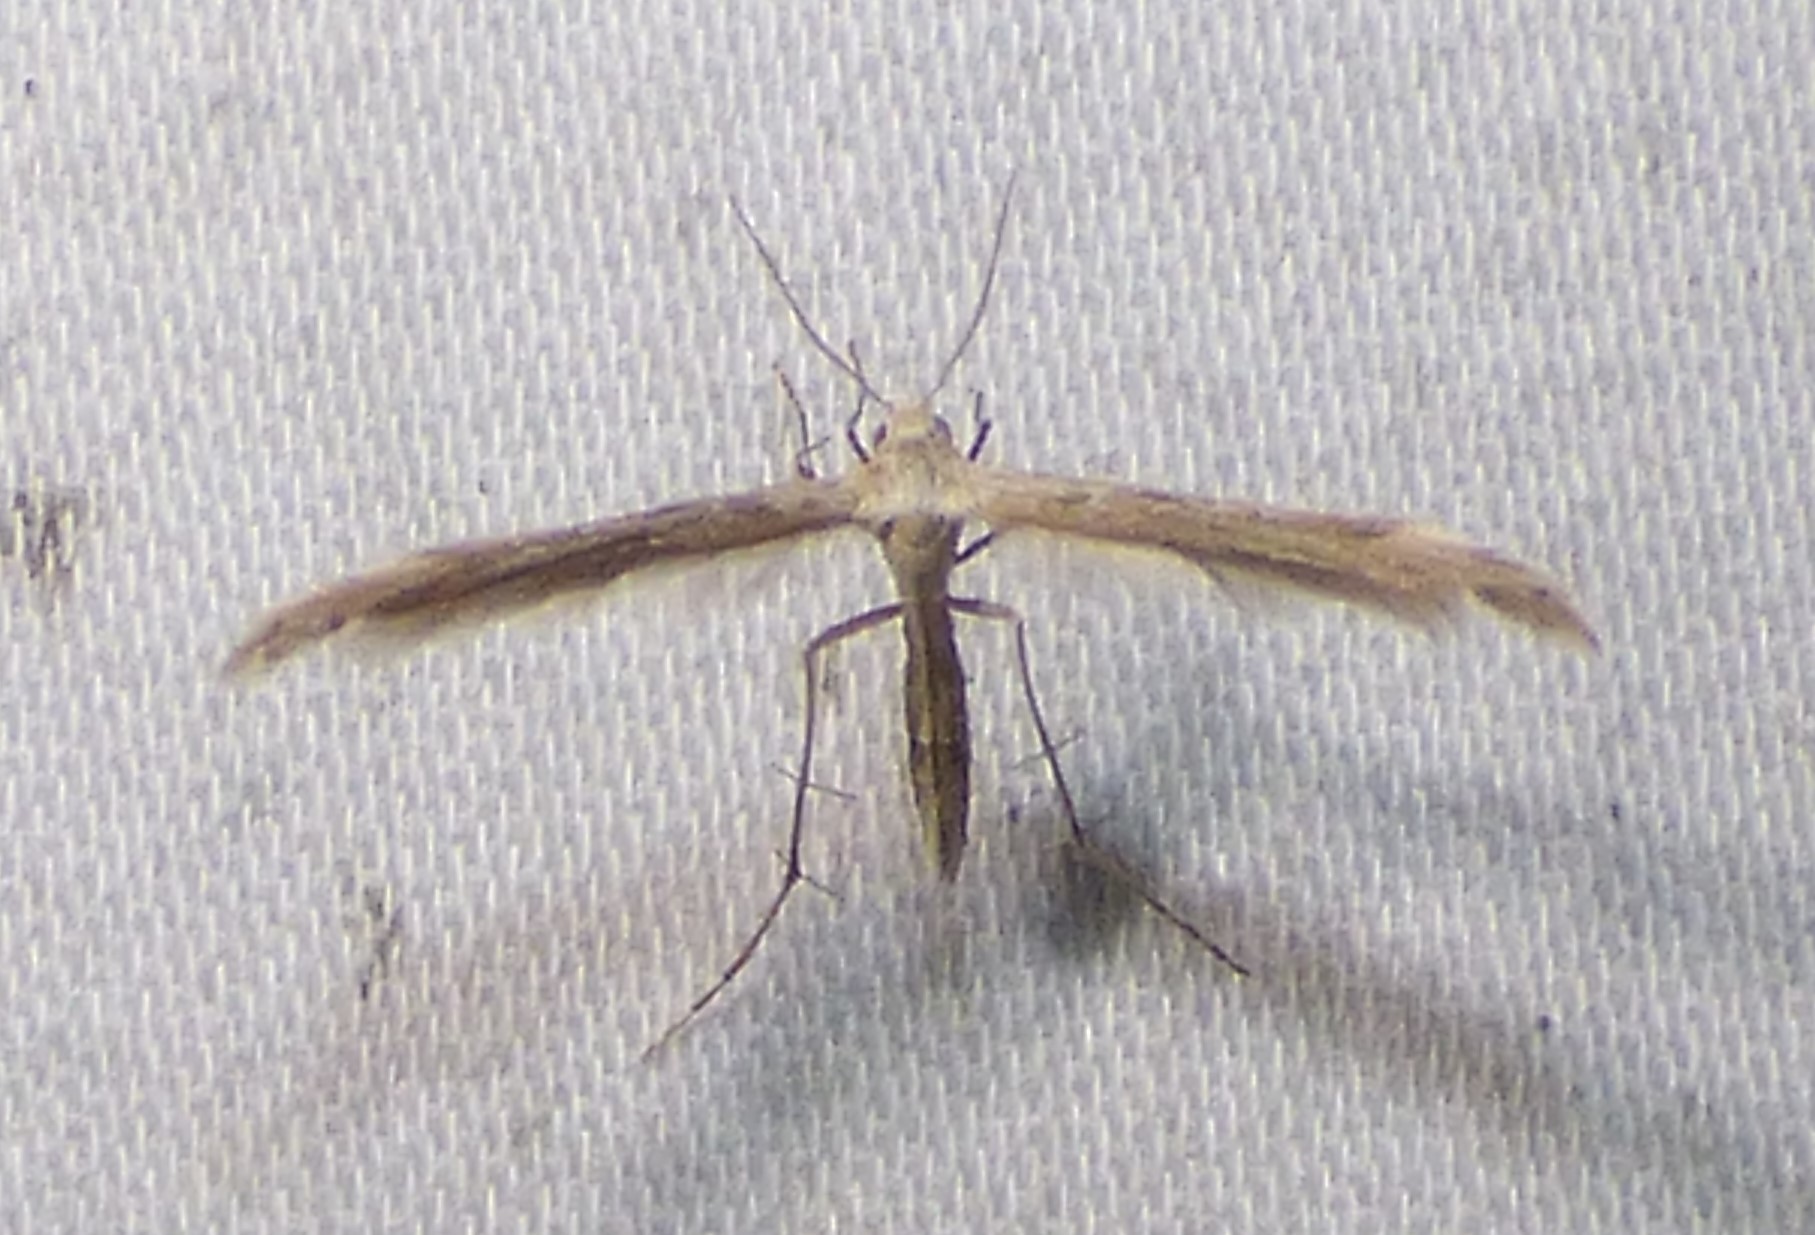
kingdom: Animalia
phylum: Arthropoda
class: Insecta
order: Lepidoptera
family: Pterophoridae
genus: Lioptilodes
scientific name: Lioptilodes albistriolatus
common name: Moth
